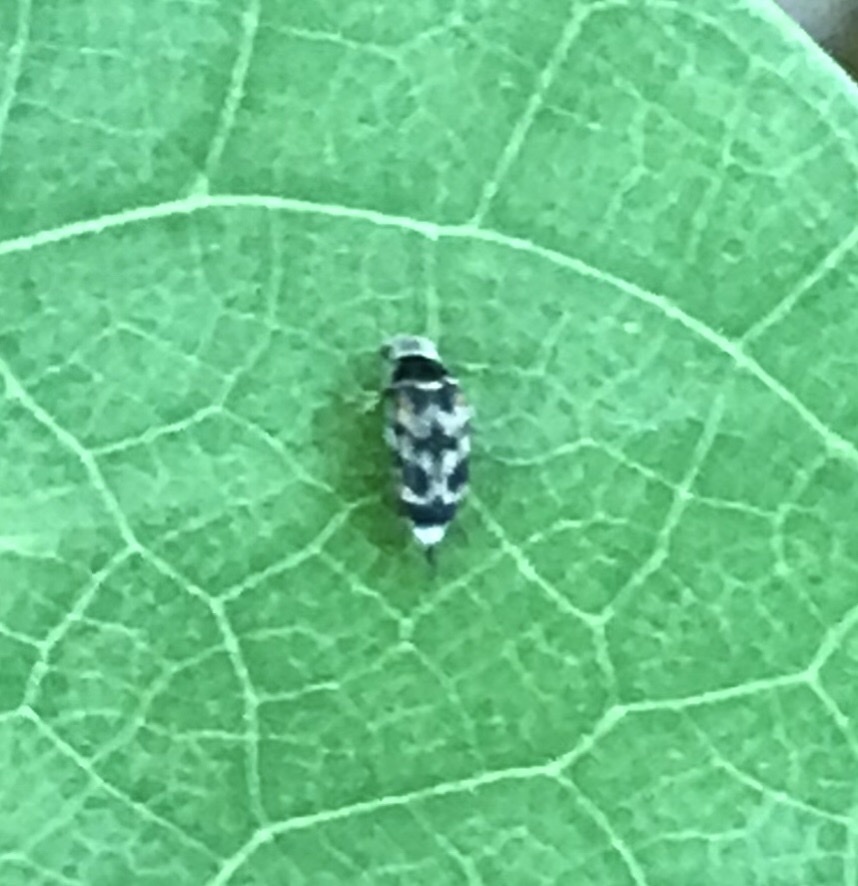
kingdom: Animalia
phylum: Arthropoda
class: Insecta
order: Coleoptera
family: Mordellidae
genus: Paramordellaria
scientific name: Paramordellaria carinata
